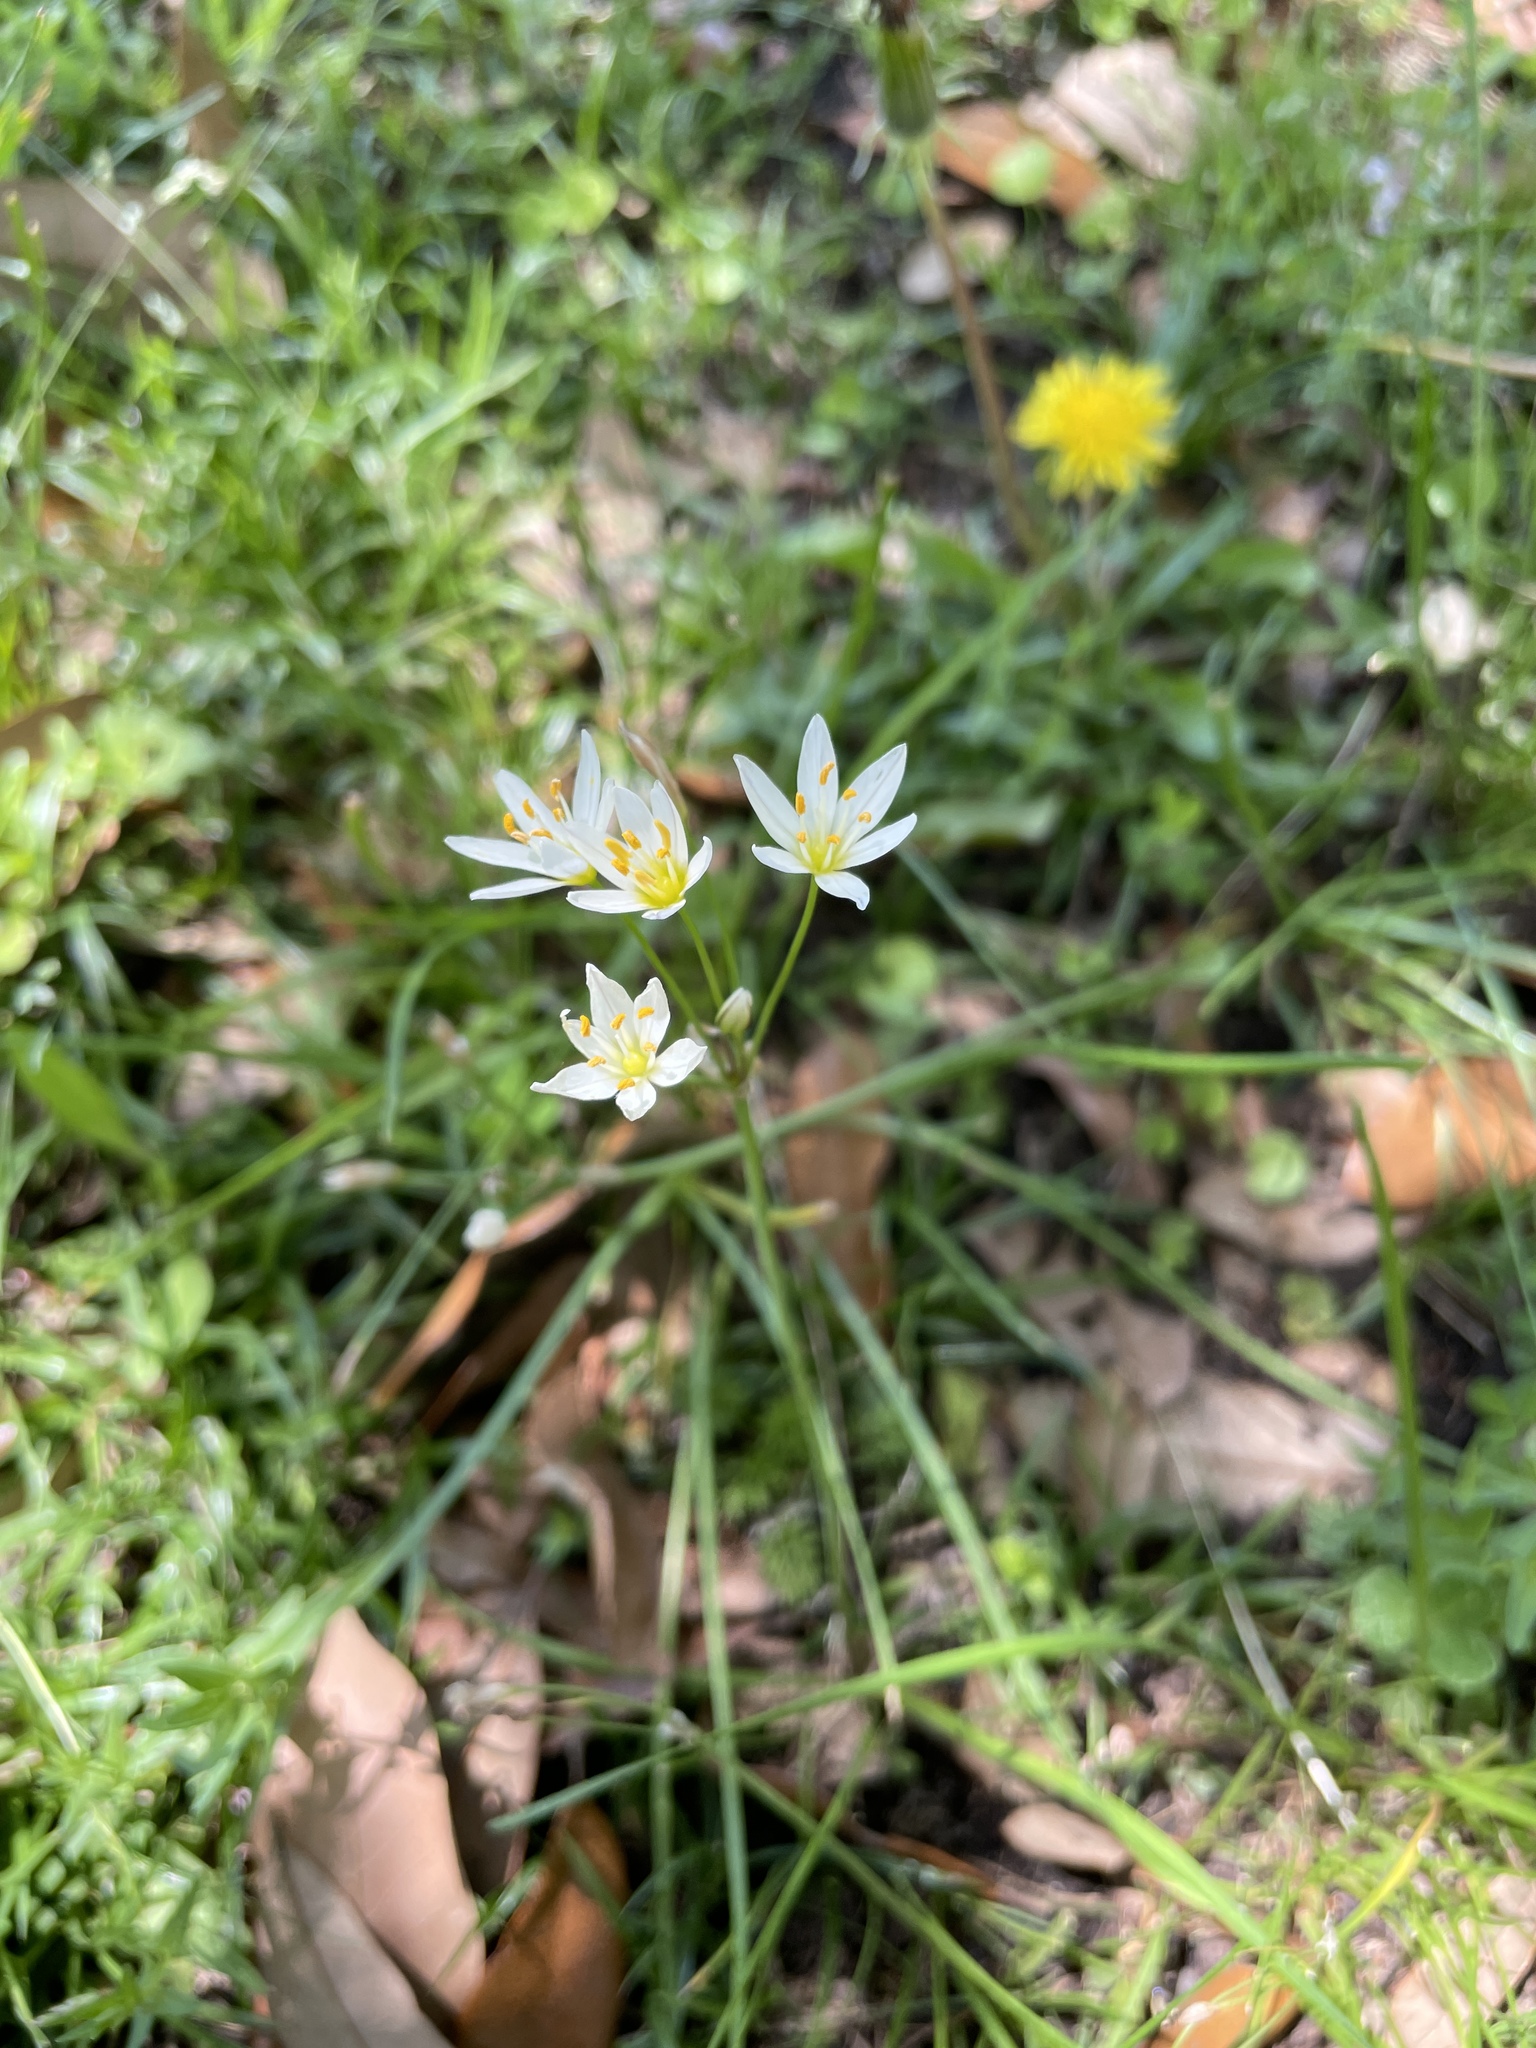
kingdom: Plantae
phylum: Tracheophyta
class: Liliopsida
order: Asparagales
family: Amaryllidaceae
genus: Nothoscordum
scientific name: Nothoscordum bivalve
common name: Crow-poison
